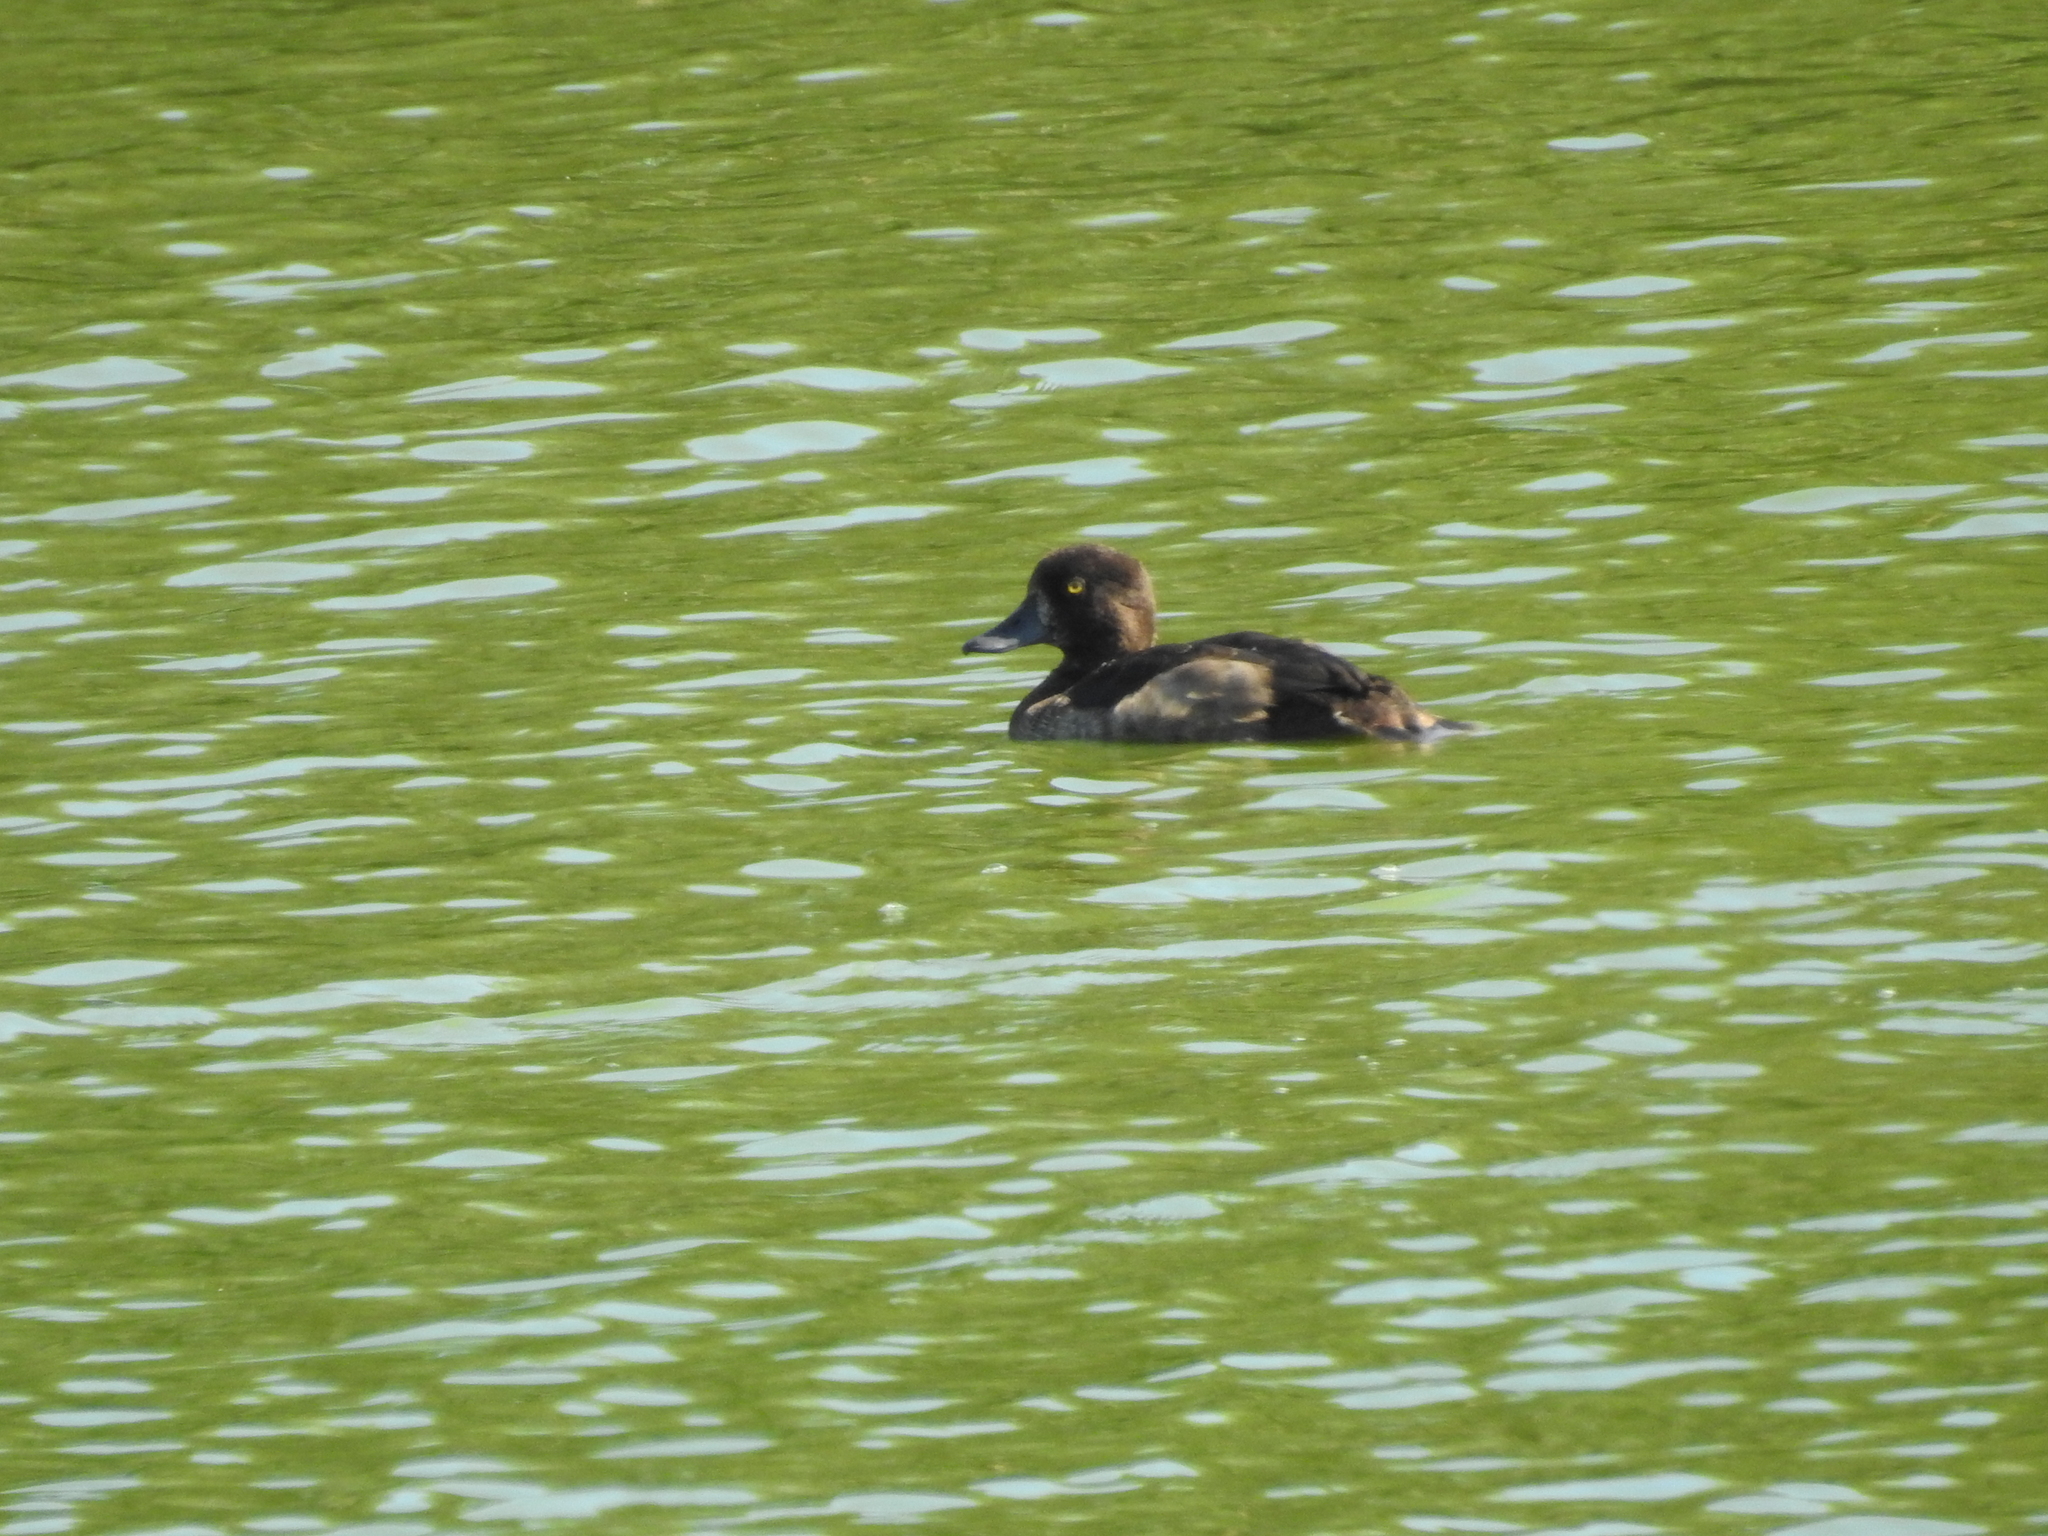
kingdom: Animalia
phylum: Chordata
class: Aves
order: Anseriformes
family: Anatidae
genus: Aythya
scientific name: Aythya fuligula
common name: Tufted duck
